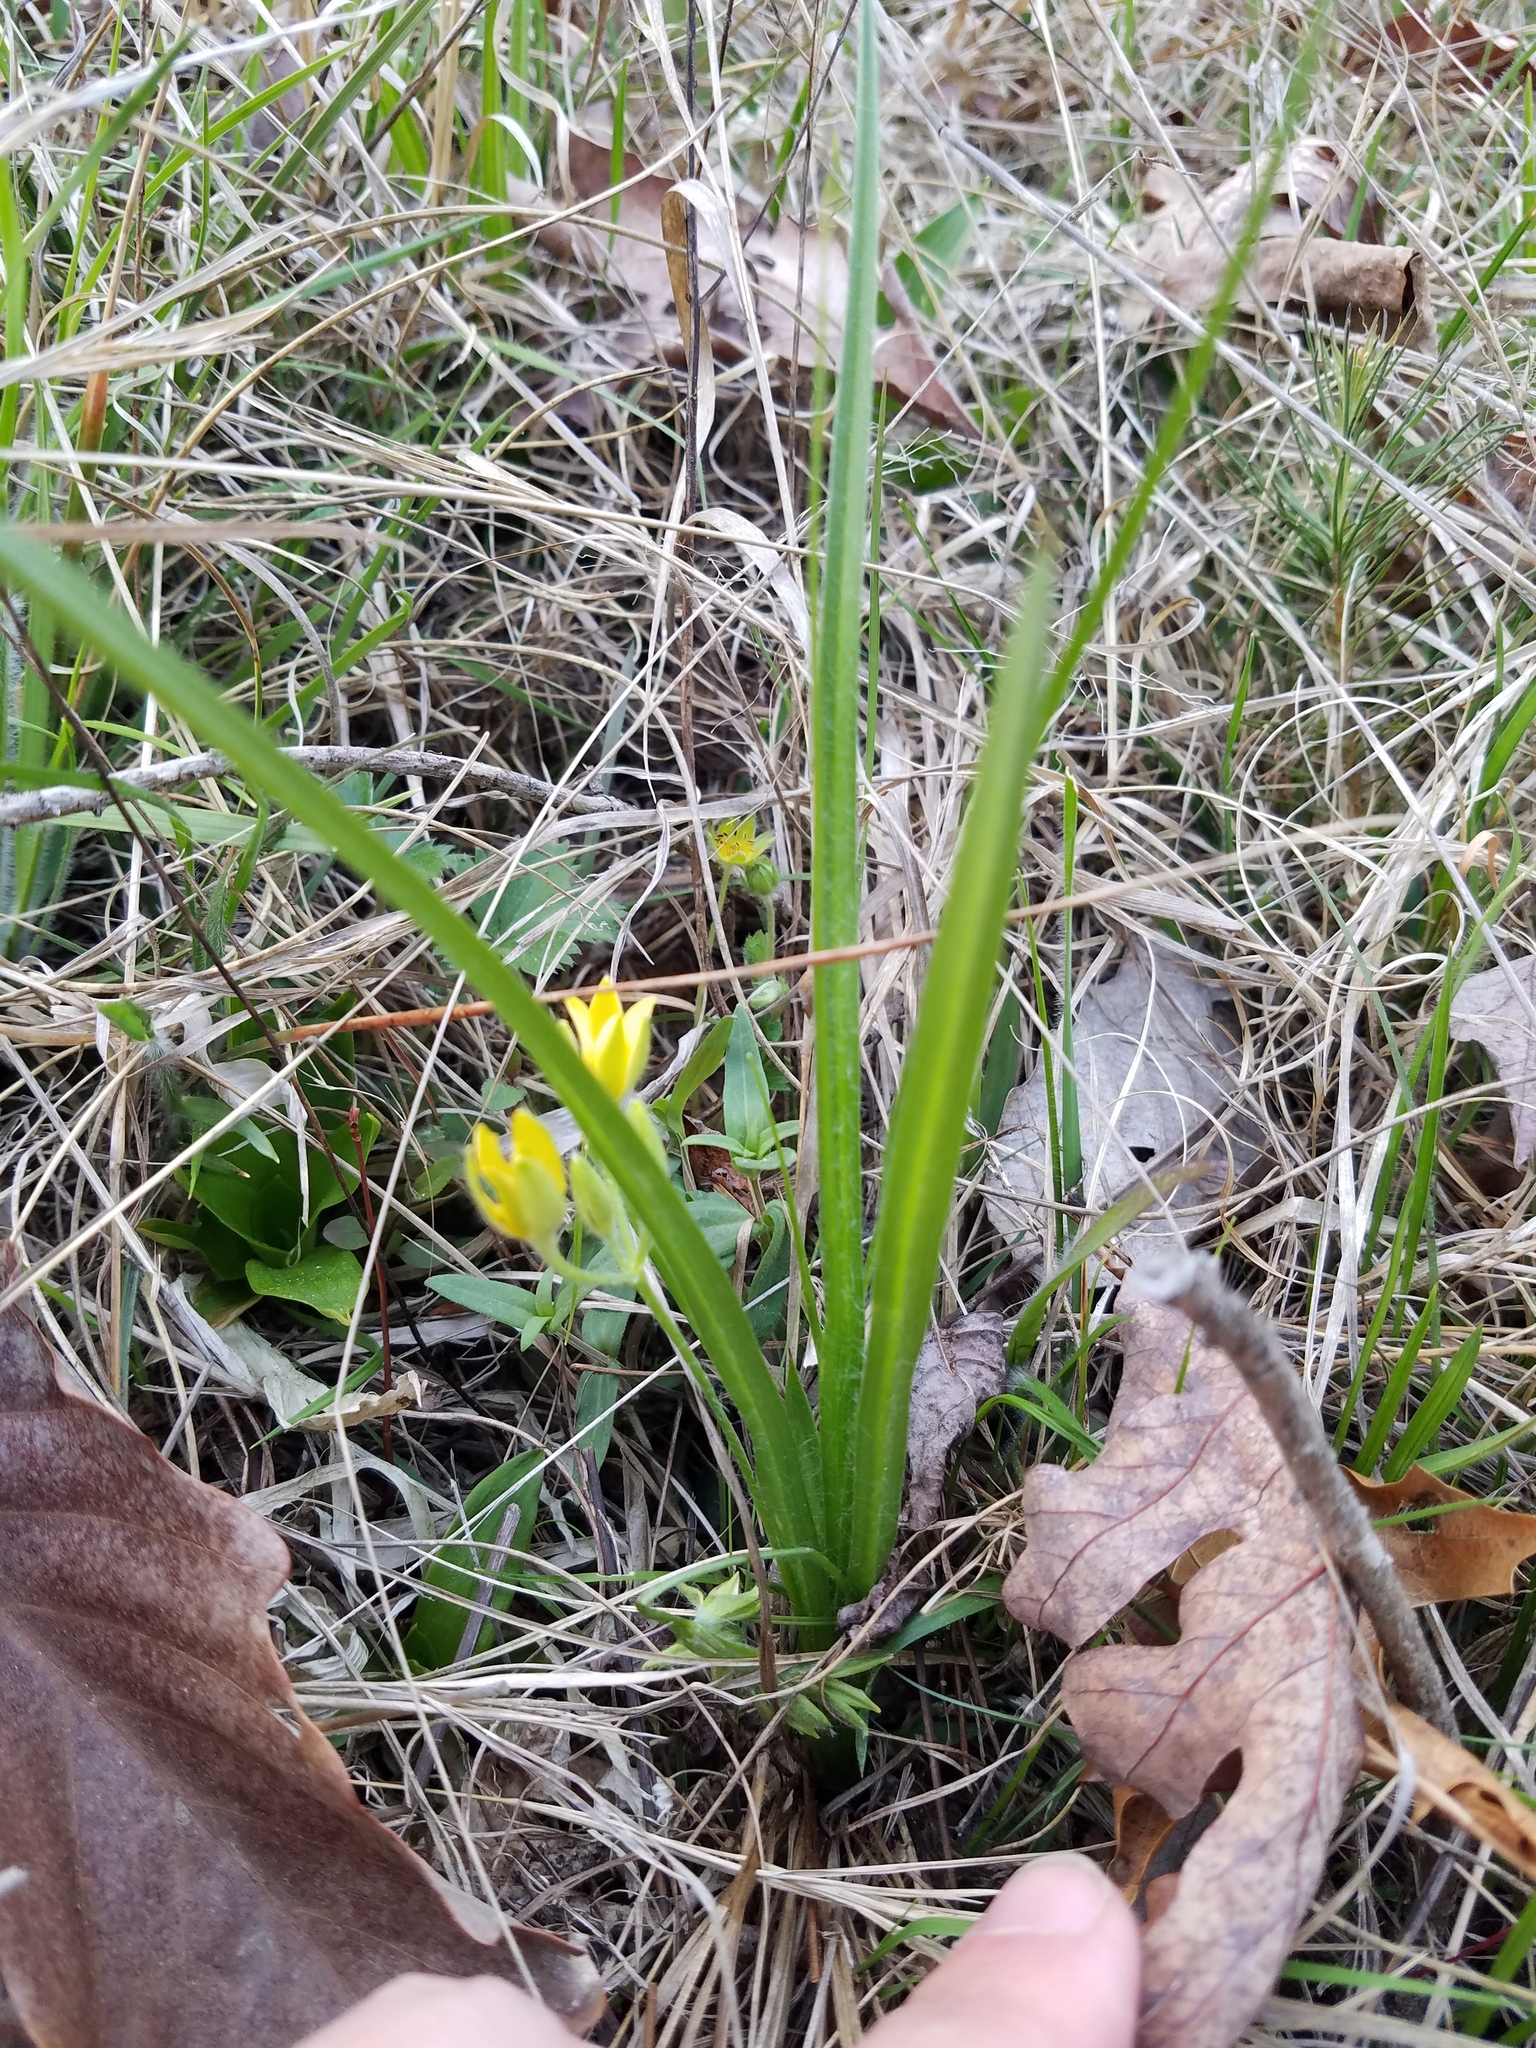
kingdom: Plantae
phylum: Tracheophyta
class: Liliopsida
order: Asparagales
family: Hypoxidaceae
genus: Hypoxis
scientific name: Hypoxis hirsuta
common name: Common goldstar
